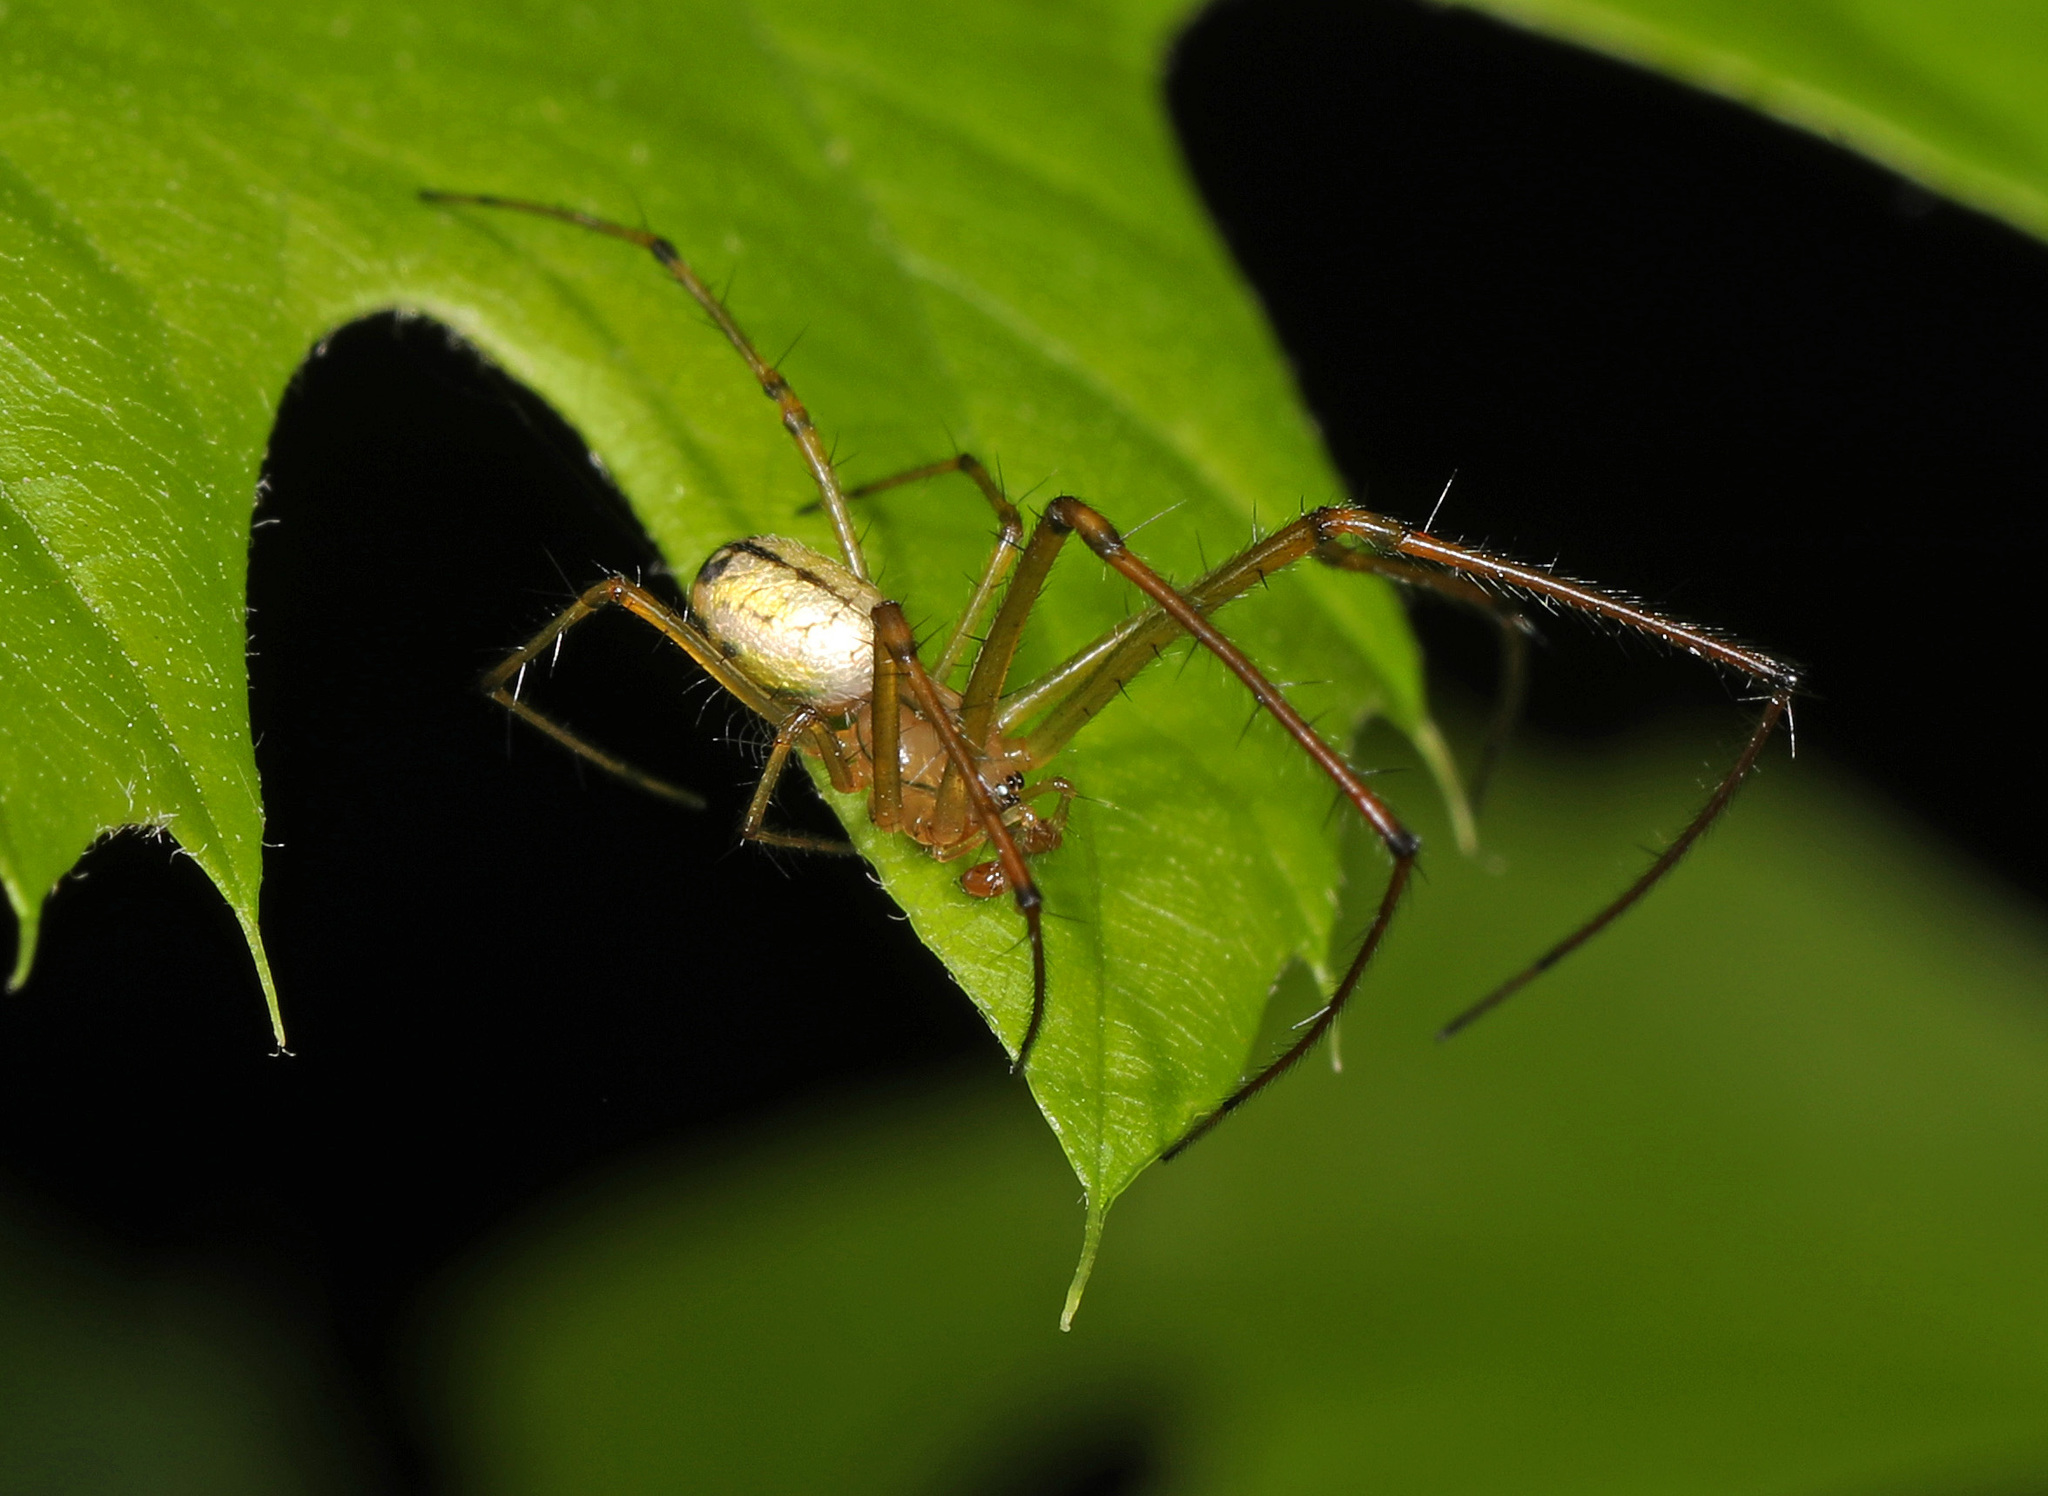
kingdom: Animalia
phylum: Arthropoda
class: Arachnida
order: Araneae
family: Tetragnathidae
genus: Leucauge
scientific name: Leucauge venusta
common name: Longjawed orb weavers
